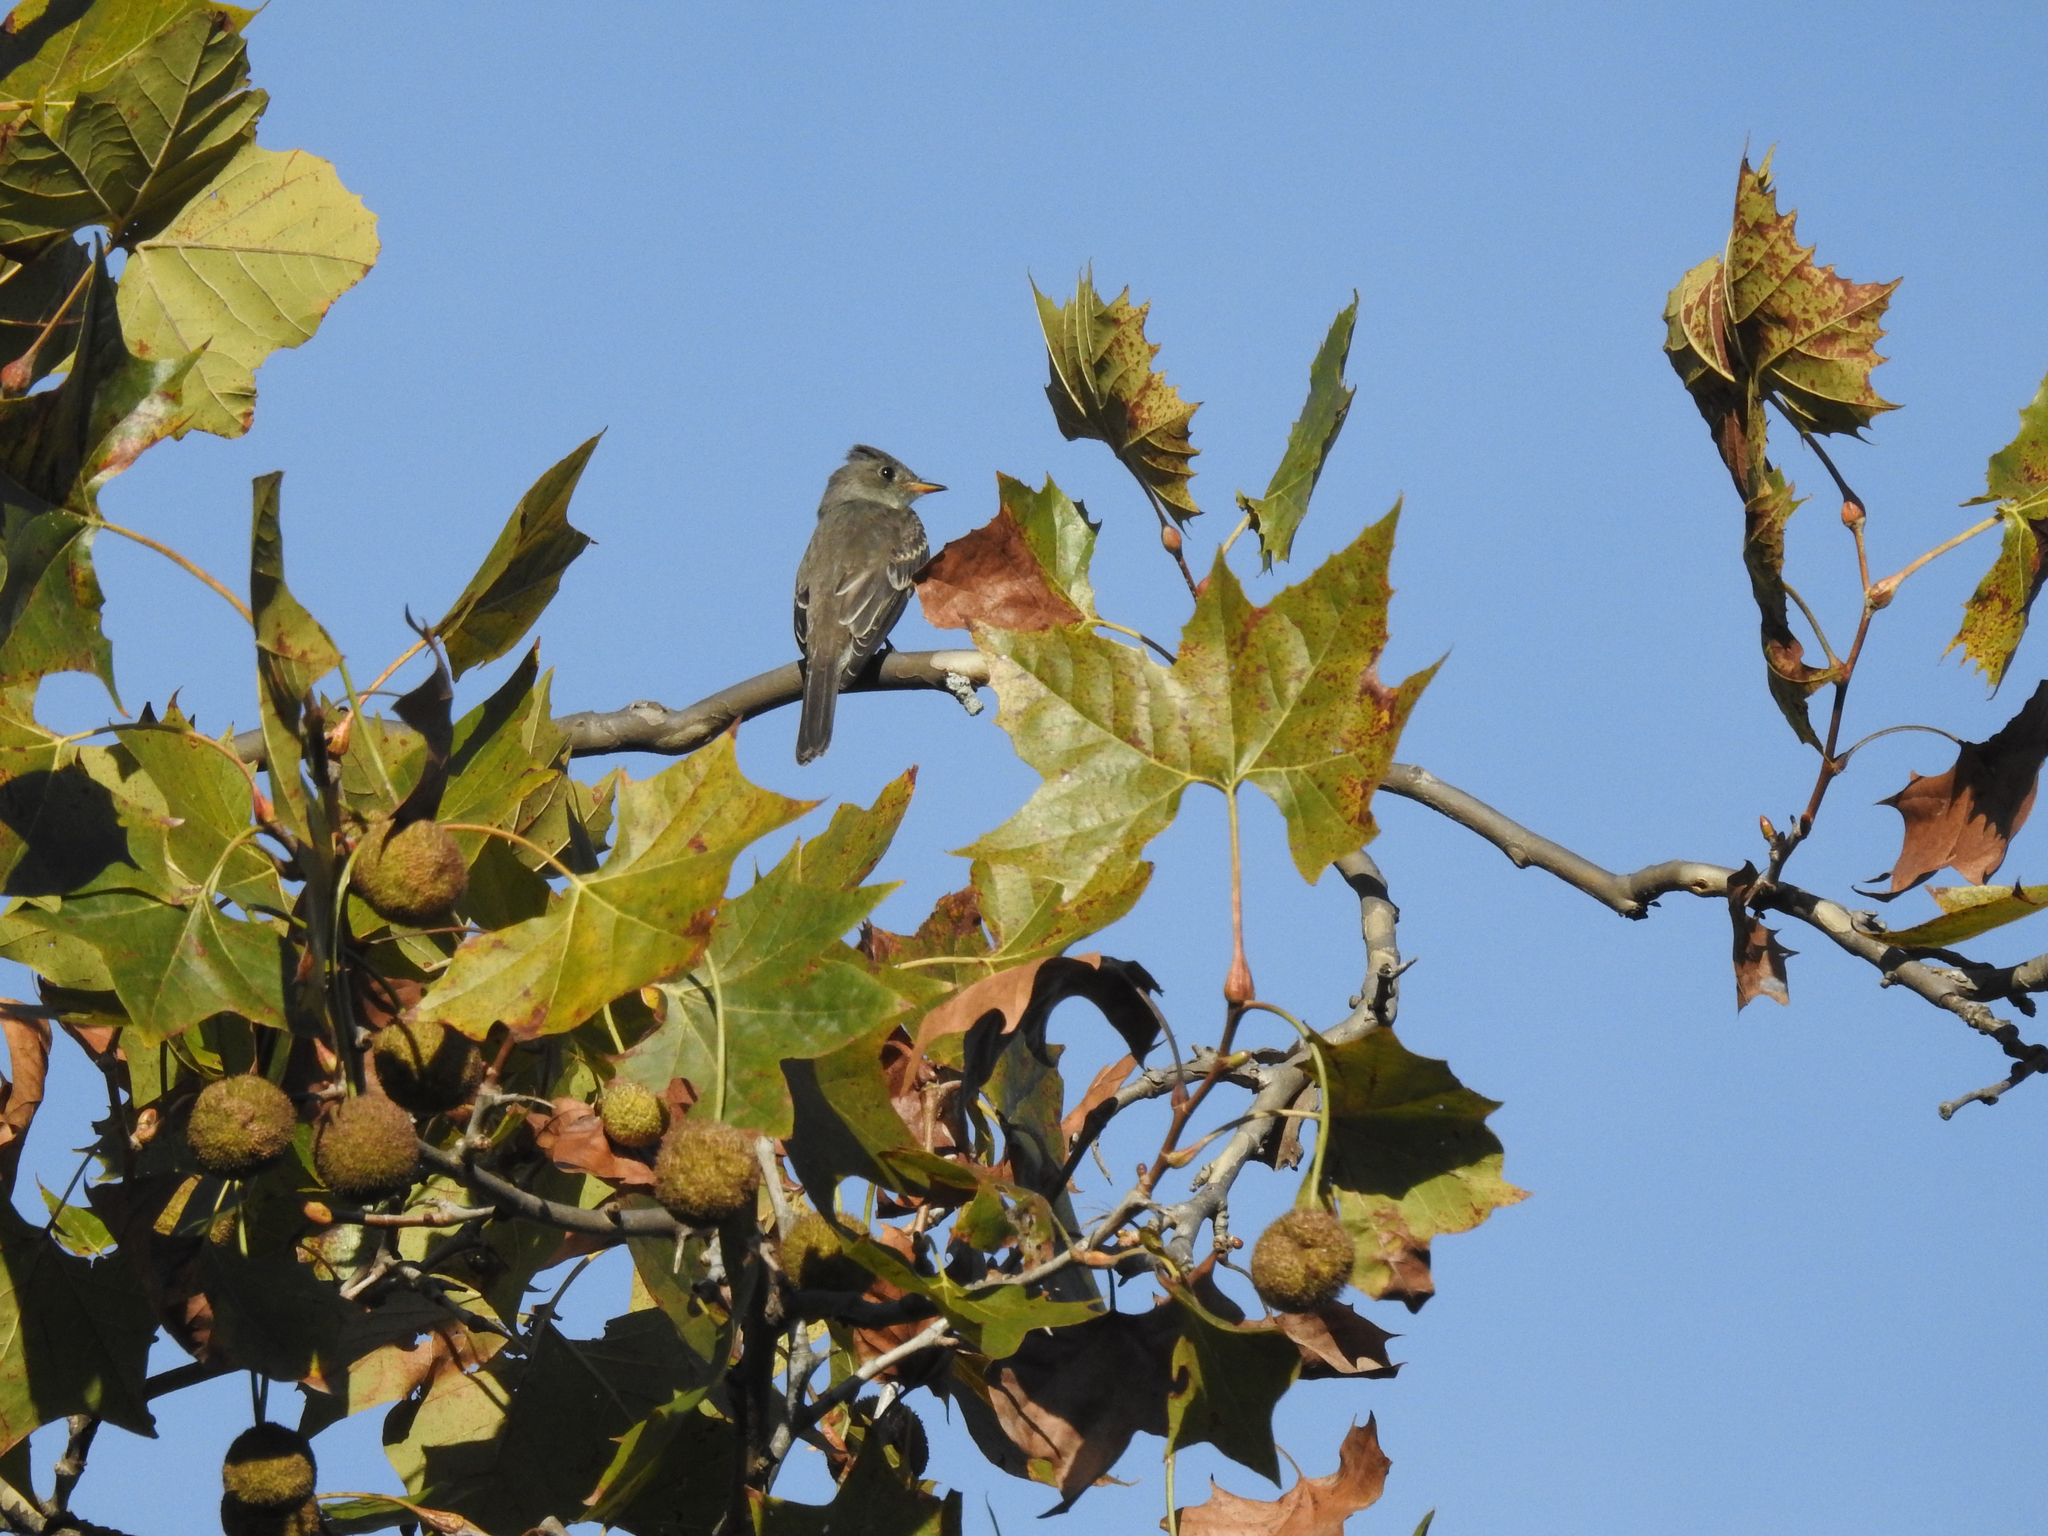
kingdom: Animalia
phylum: Chordata
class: Aves
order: Passeriformes
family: Tyrannidae
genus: Contopus
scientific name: Contopus virens
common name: Eastern wood-pewee
